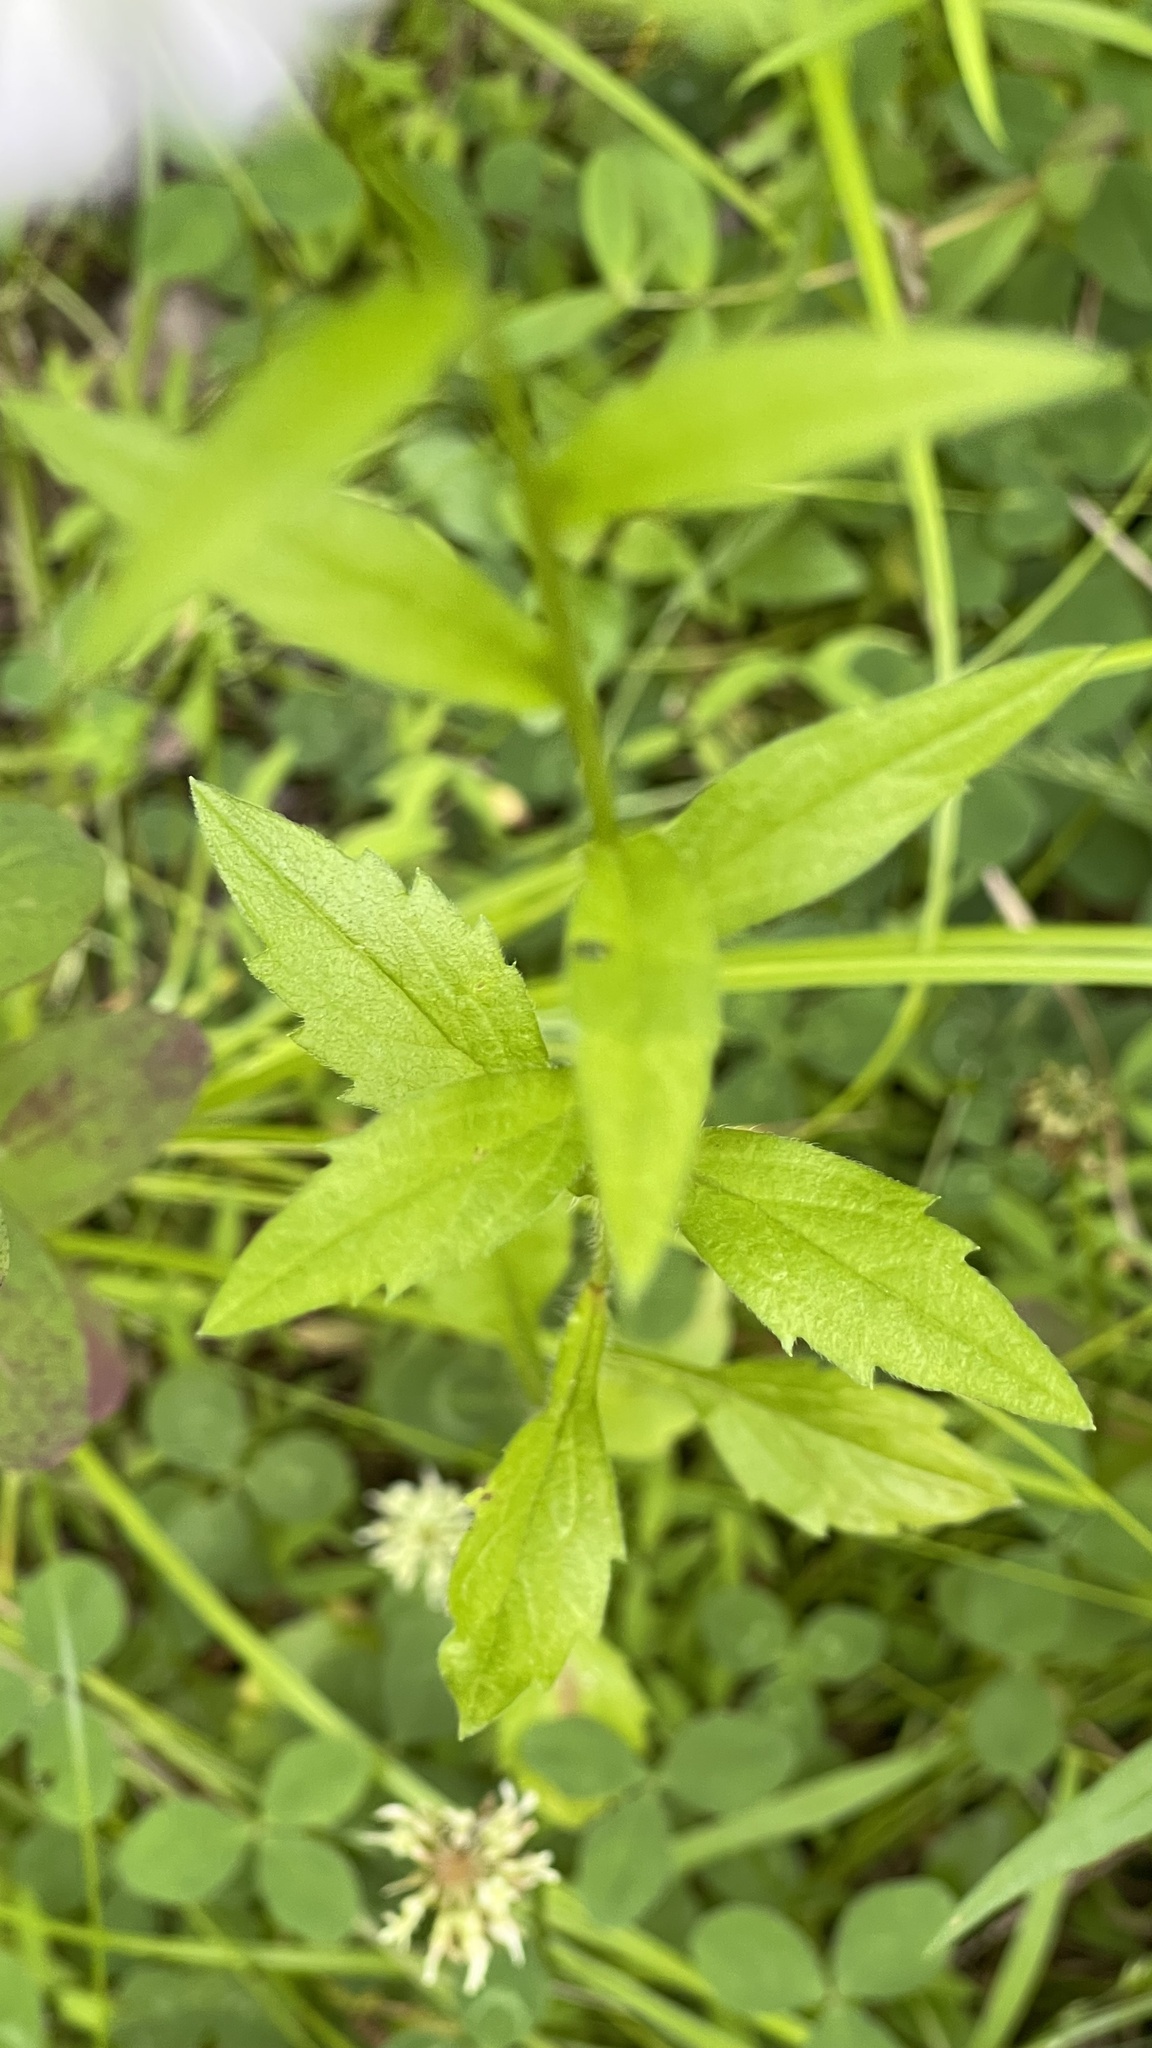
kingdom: Plantae
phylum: Tracheophyta
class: Magnoliopsida
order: Asterales
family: Asteraceae
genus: Erigeron
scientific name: Erigeron annuus
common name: Tall fleabane
